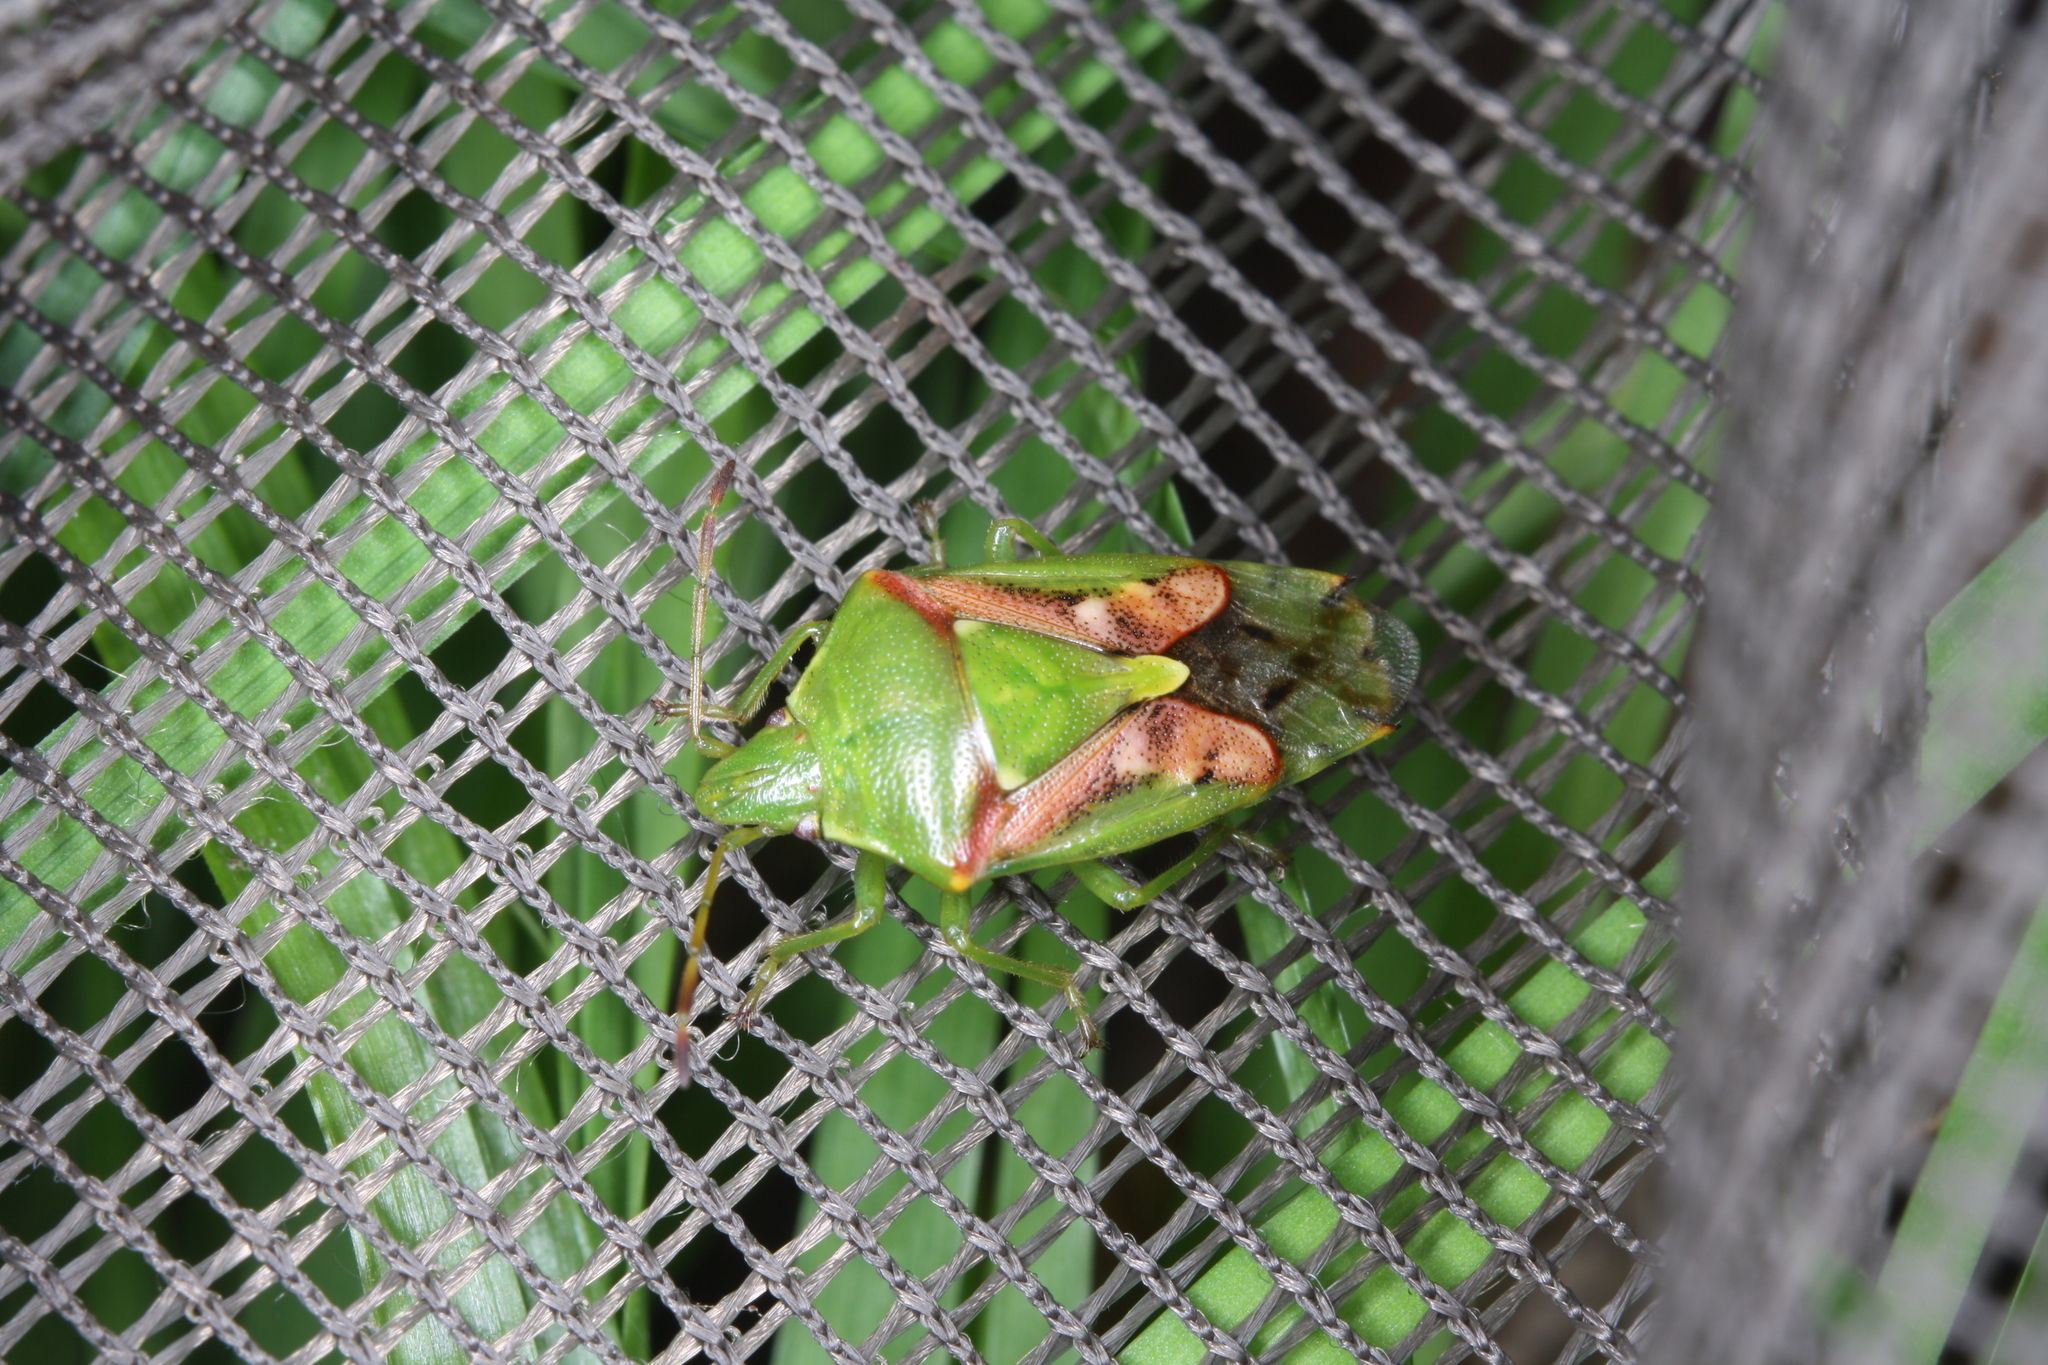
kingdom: Animalia
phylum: Arthropoda
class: Insecta
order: Hemiptera
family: Acanthosomatidae
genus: Cyphostethus
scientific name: Cyphostethus tristriatus
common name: Juniper shieldbug
